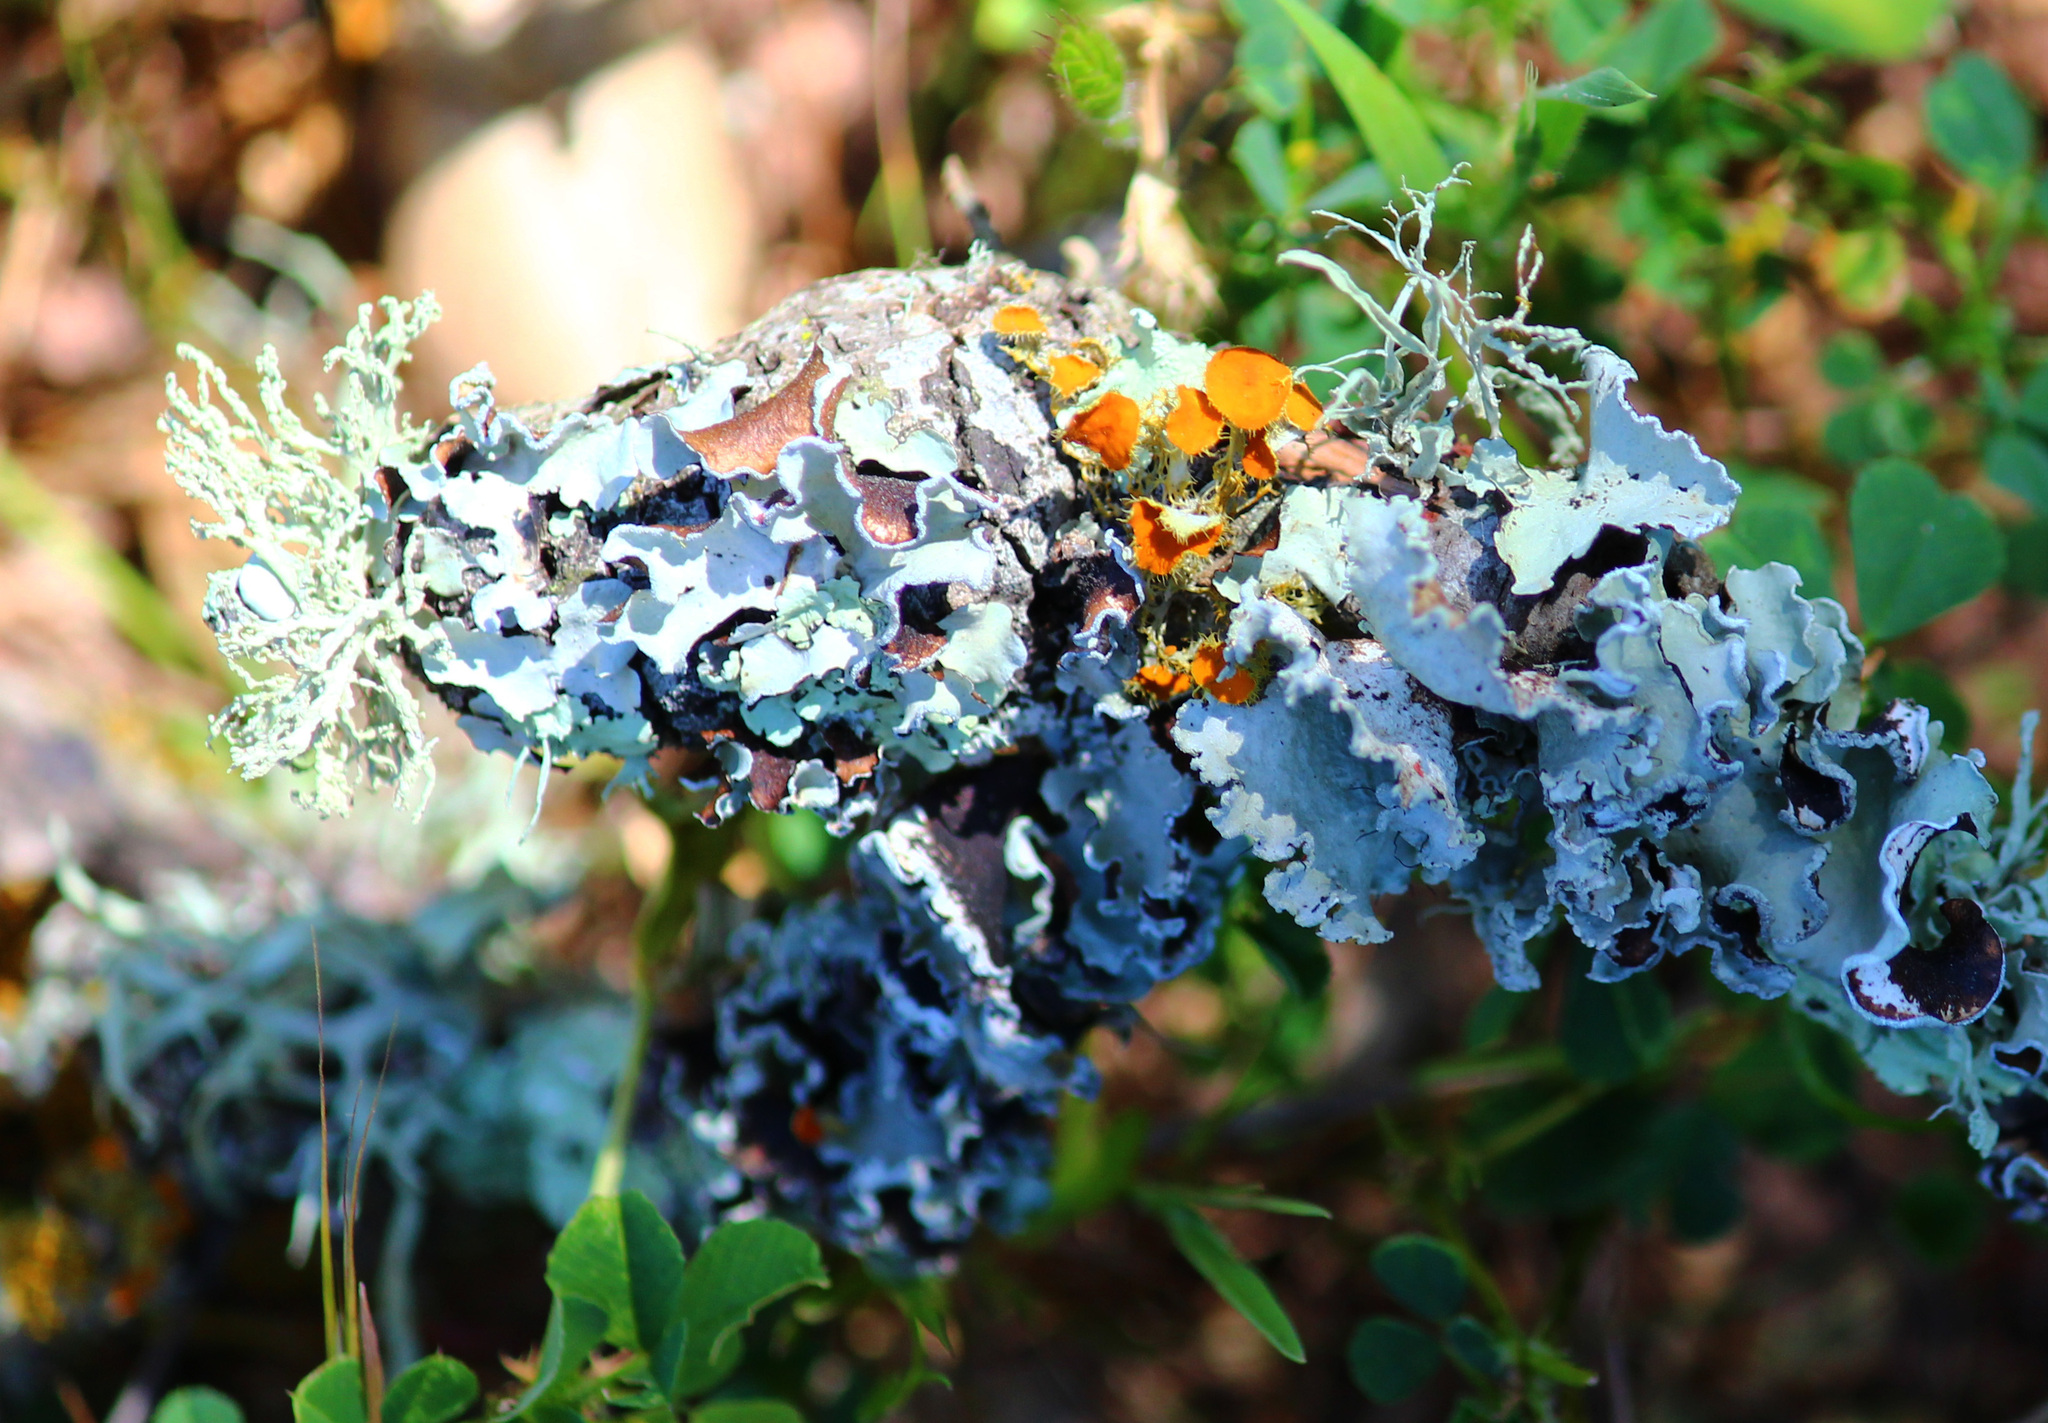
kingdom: Fungi
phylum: Ascomycota
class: Lecanoromycetes
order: Lecanorales
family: Parmeliaceae
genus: Parmotrema
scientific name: Parmotrema perlatum
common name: Black stone flower
